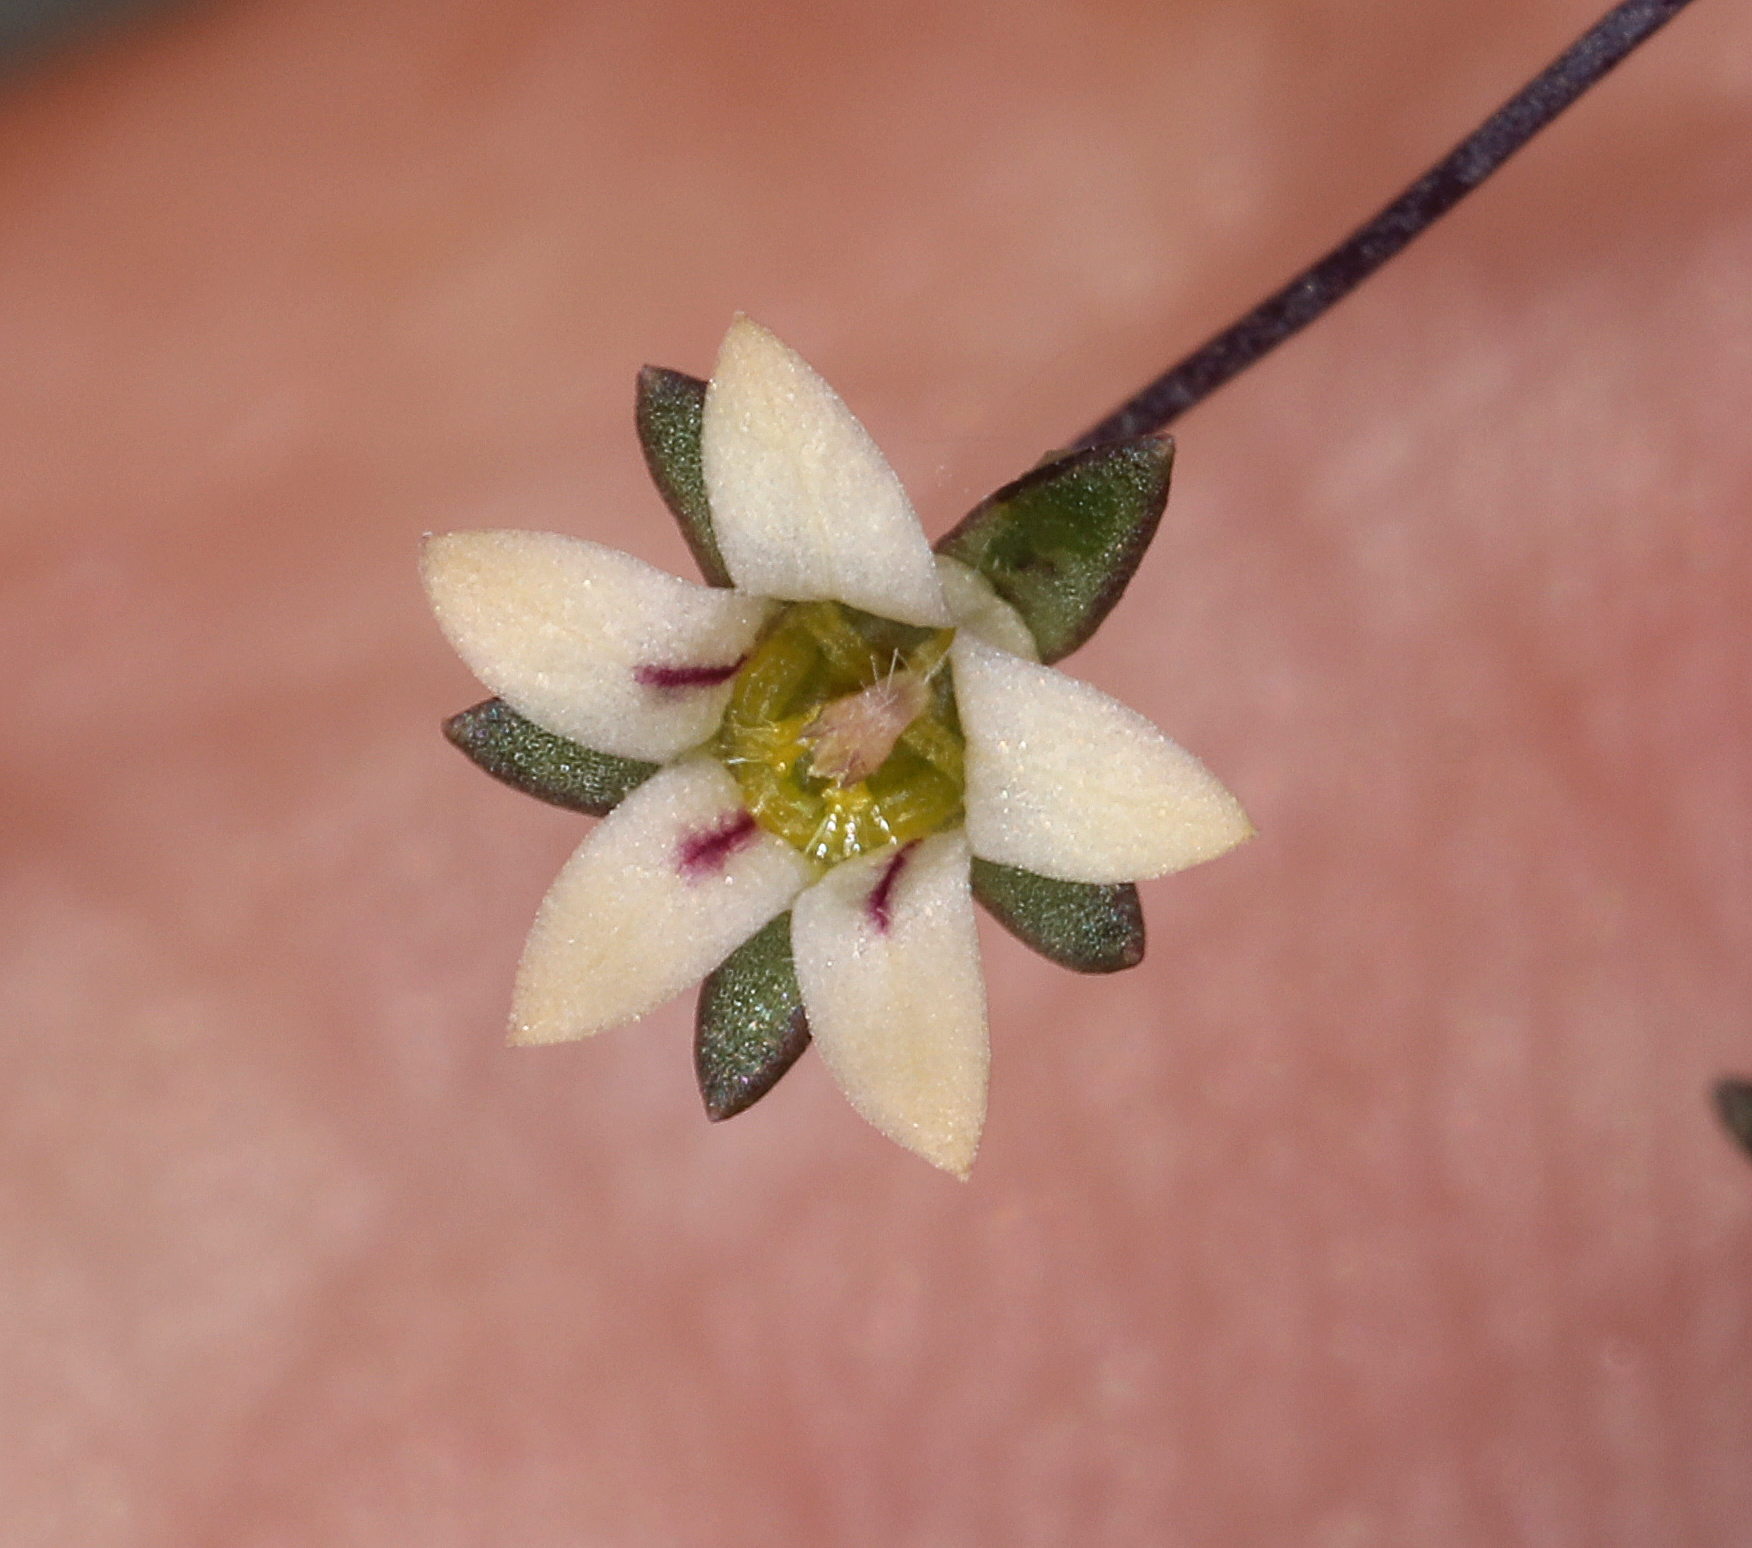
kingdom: Plantae
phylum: Tracheophyta
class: Magnoliopsida
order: Asterales
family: Campanulaceae
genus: Nemacladus
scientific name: Nemacladus inyoensis
